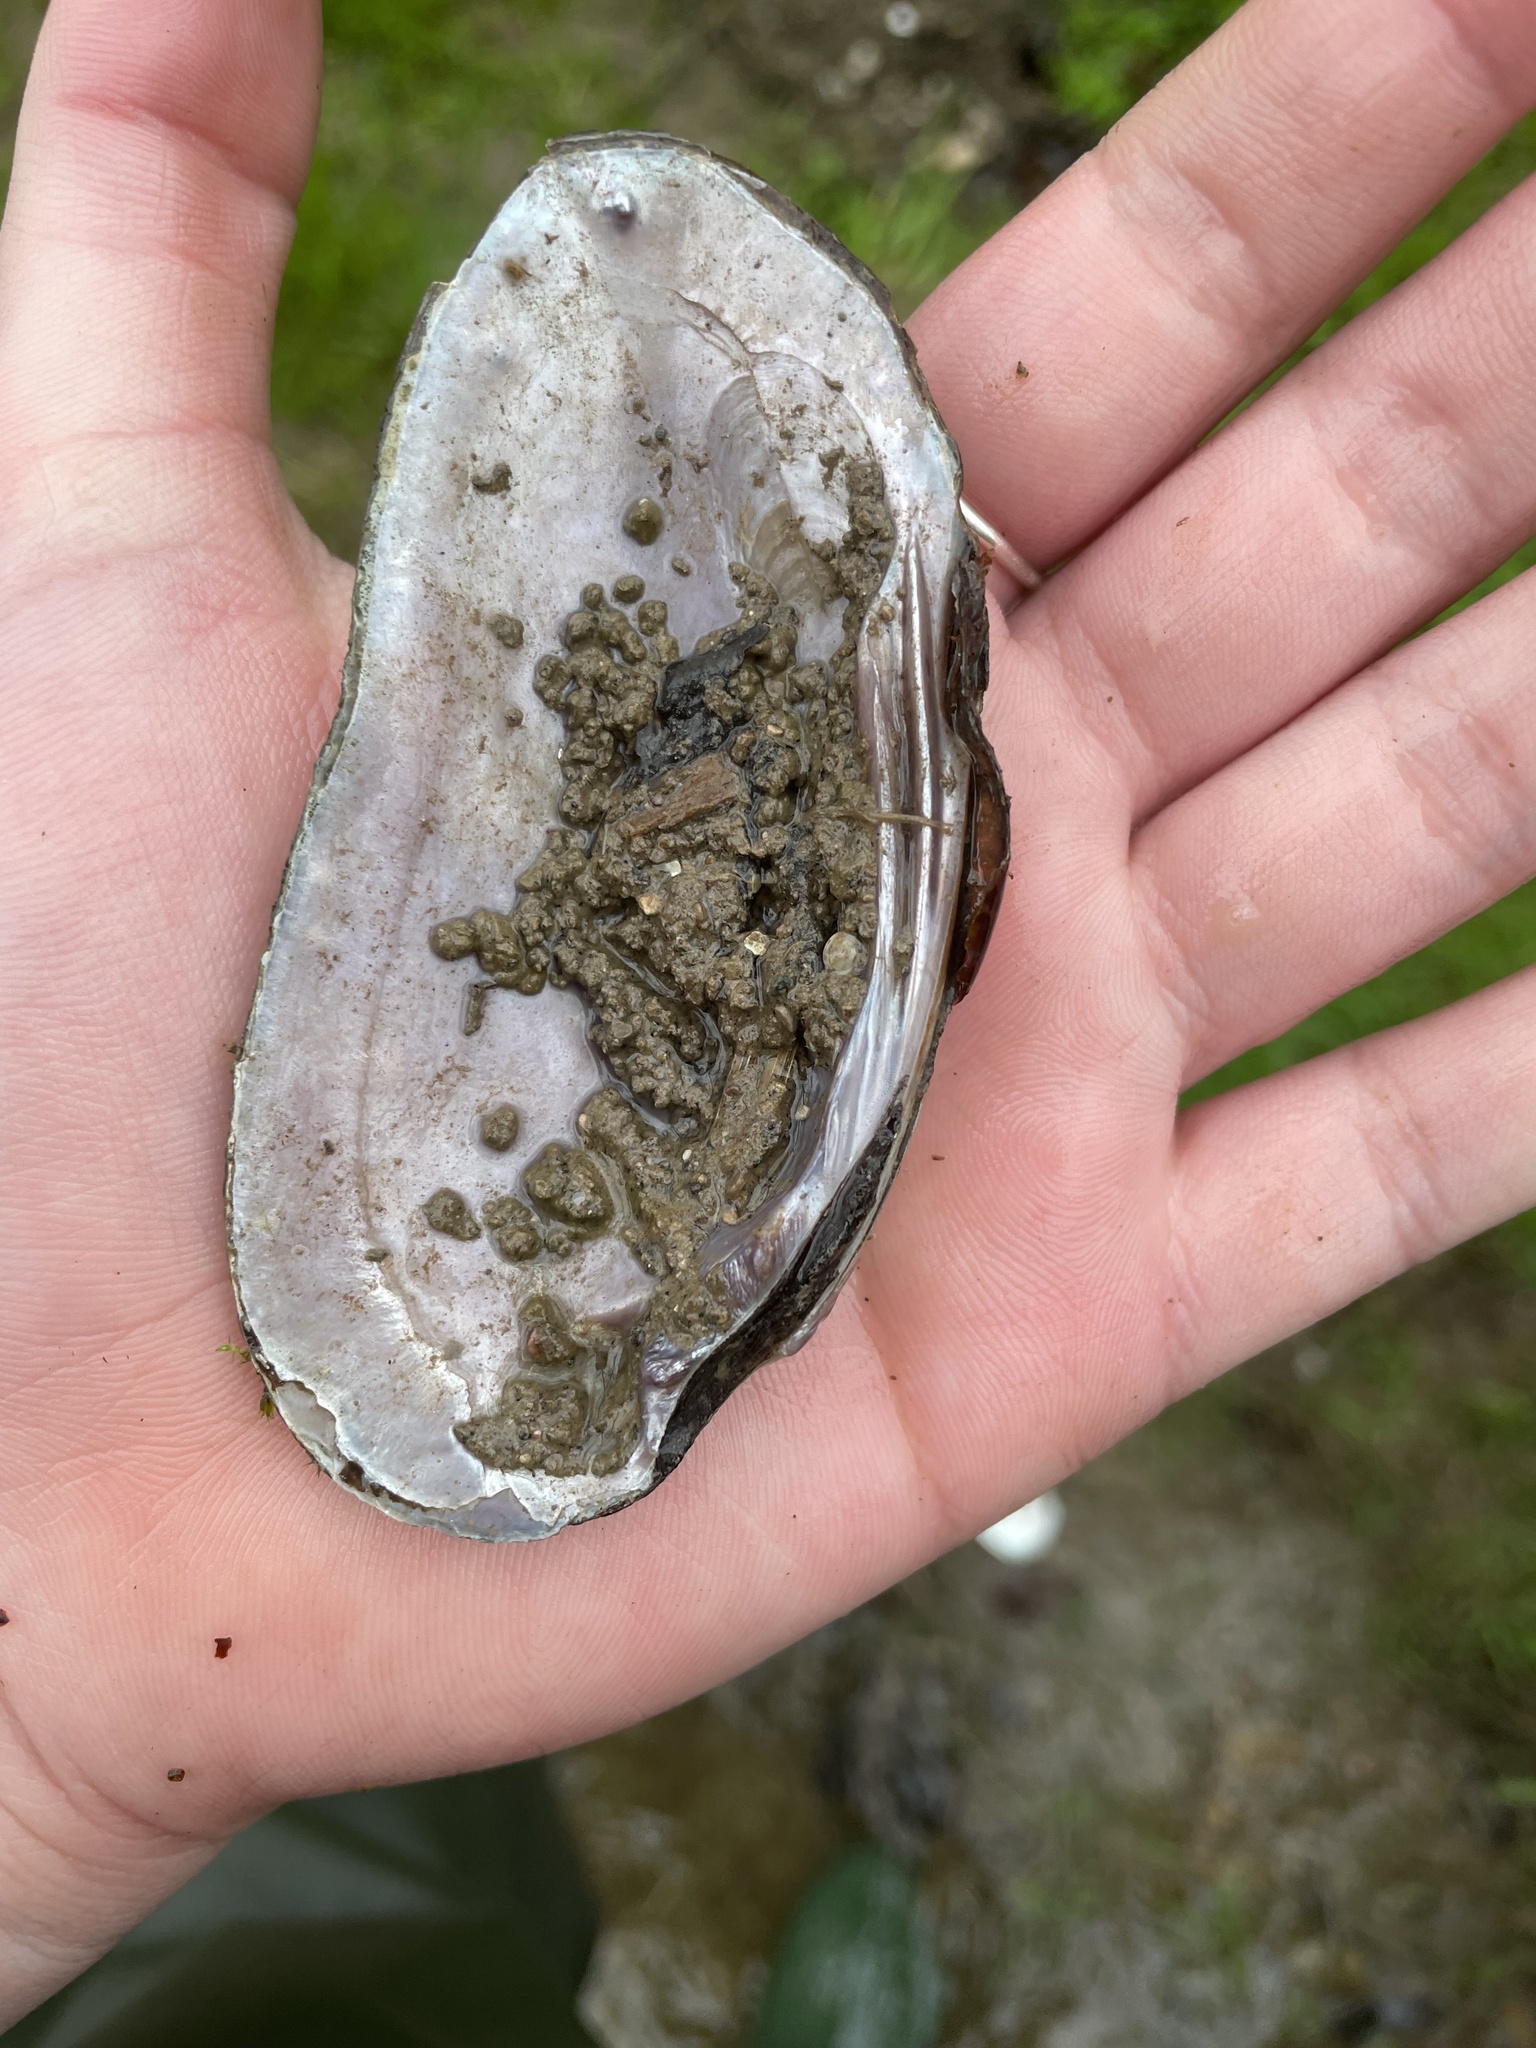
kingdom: Animalia
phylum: Mollusca
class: Bivalvia
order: Unionida
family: Unionidae
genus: Eurynia
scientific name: Eurynia dilatata
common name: Spike
